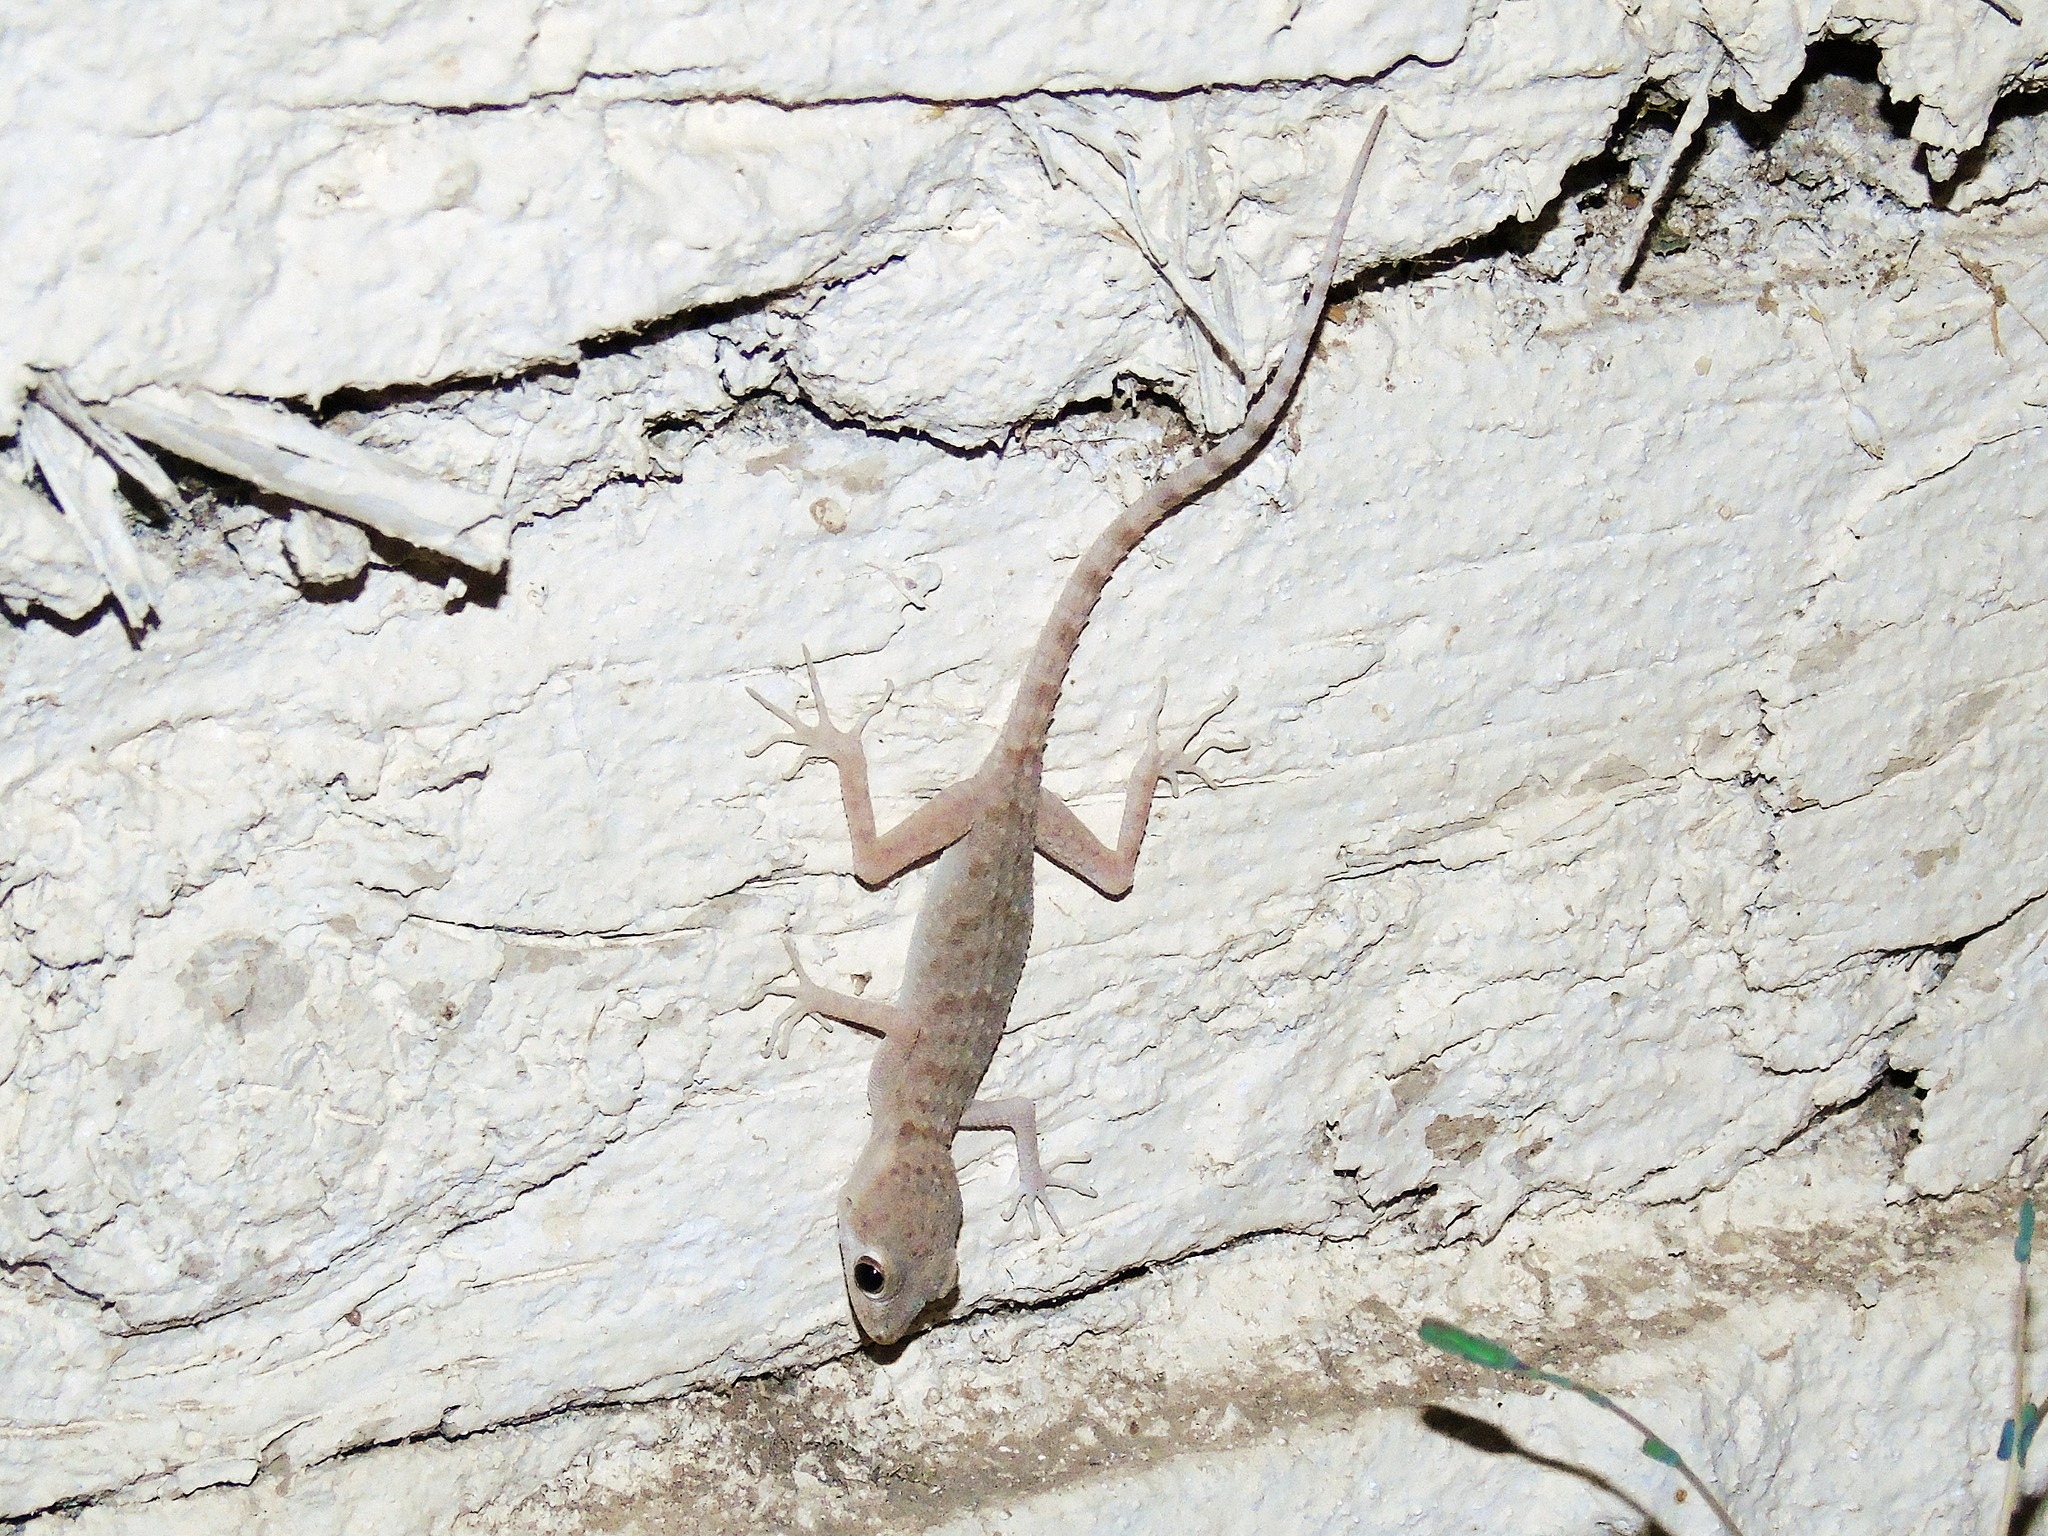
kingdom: Animalia
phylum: Chordata
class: Squamata
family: Gekkonidae
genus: Tenuidactylus
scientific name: Tenuidactylus bogdanovi
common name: Bogdanov’s thin-toed gecko
